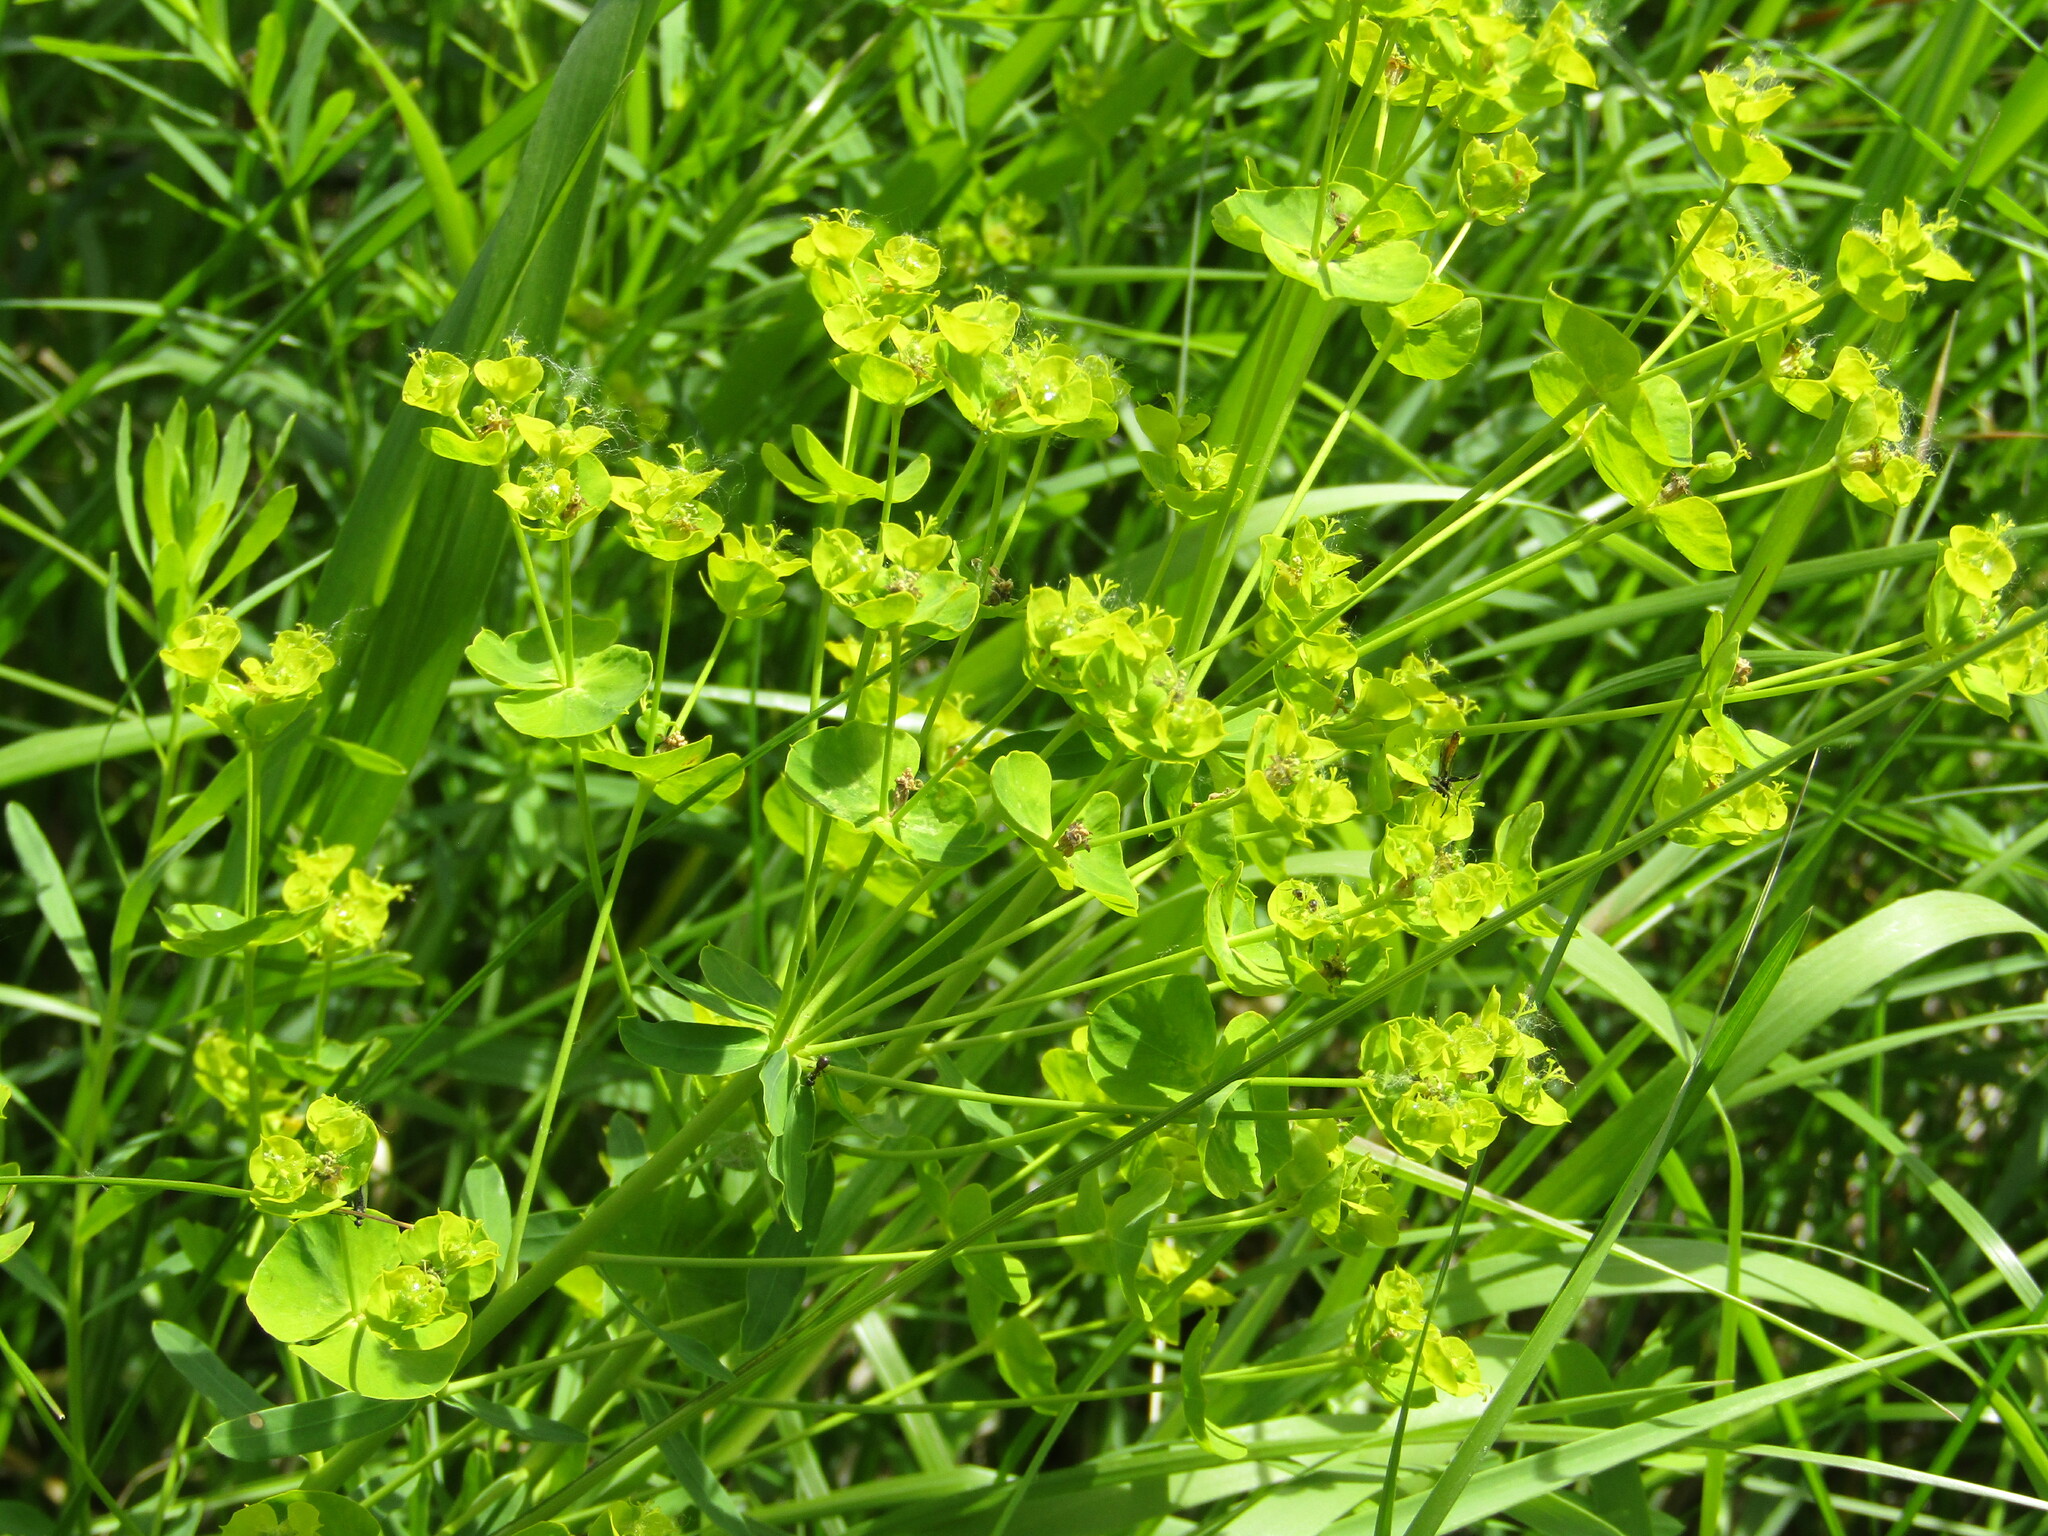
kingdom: Plantae
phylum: Tracheophyta
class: Magnoliopsida
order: Malpighiales
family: Euphorbiaceae
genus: Euphorbia
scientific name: Euphorbia virgata
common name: Leafy spurge
